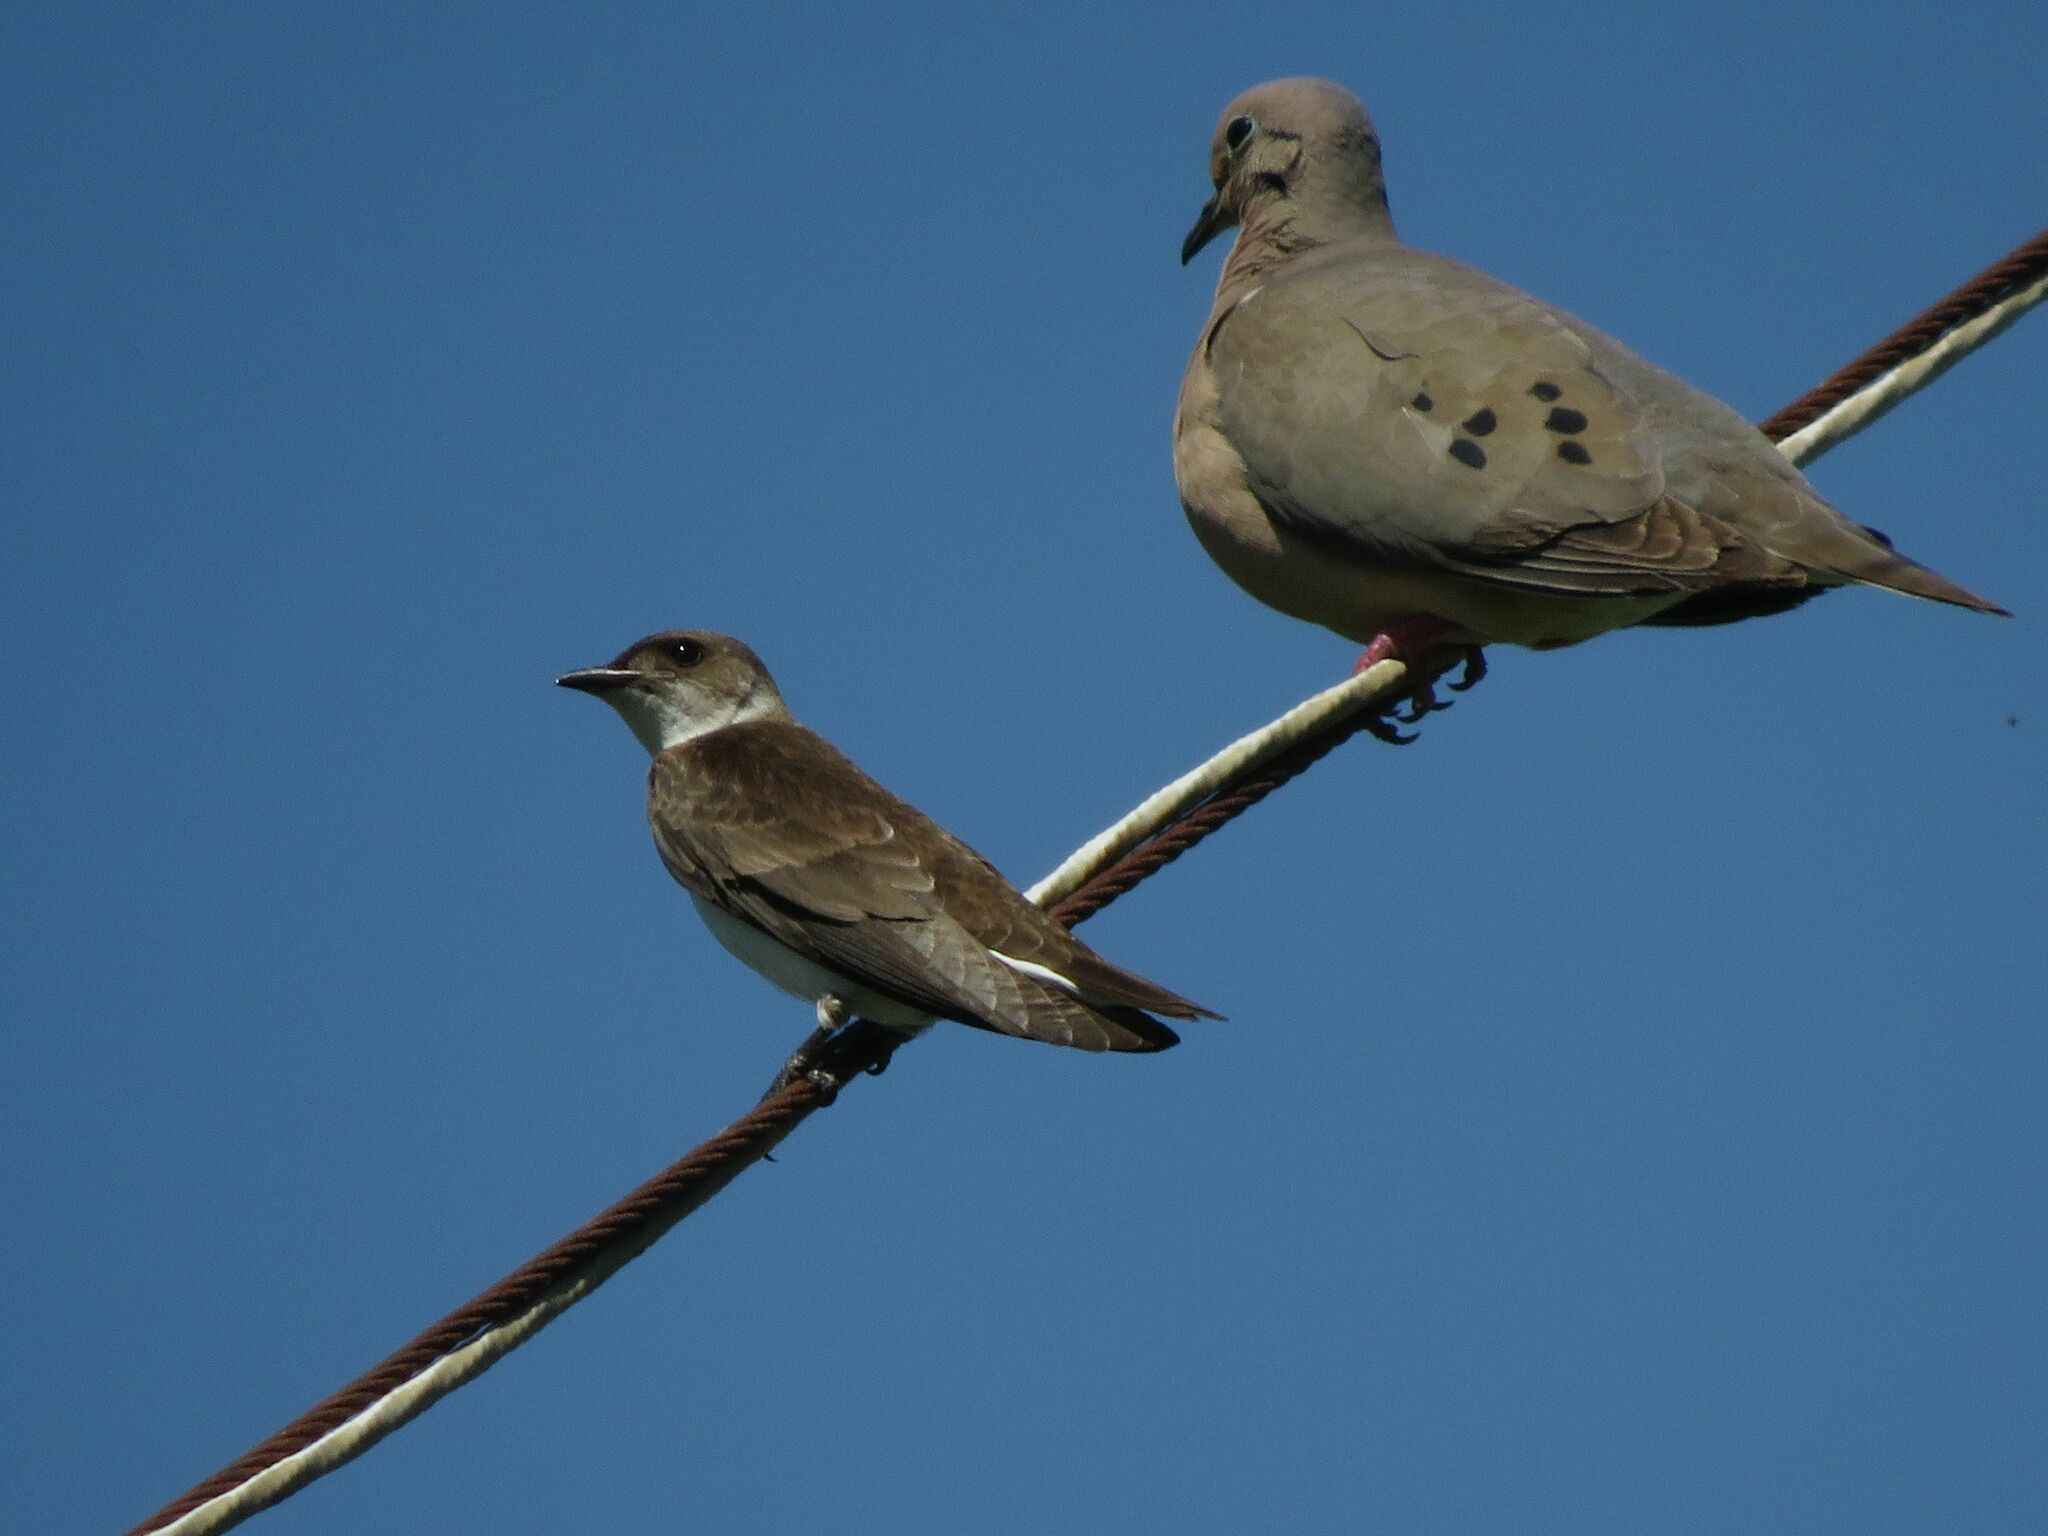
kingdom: Animalia
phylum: Chordata
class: Aves
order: Passeriformes
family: Hirundinidae
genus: Progne
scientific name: Progne tapera
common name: Brown-chested martin
